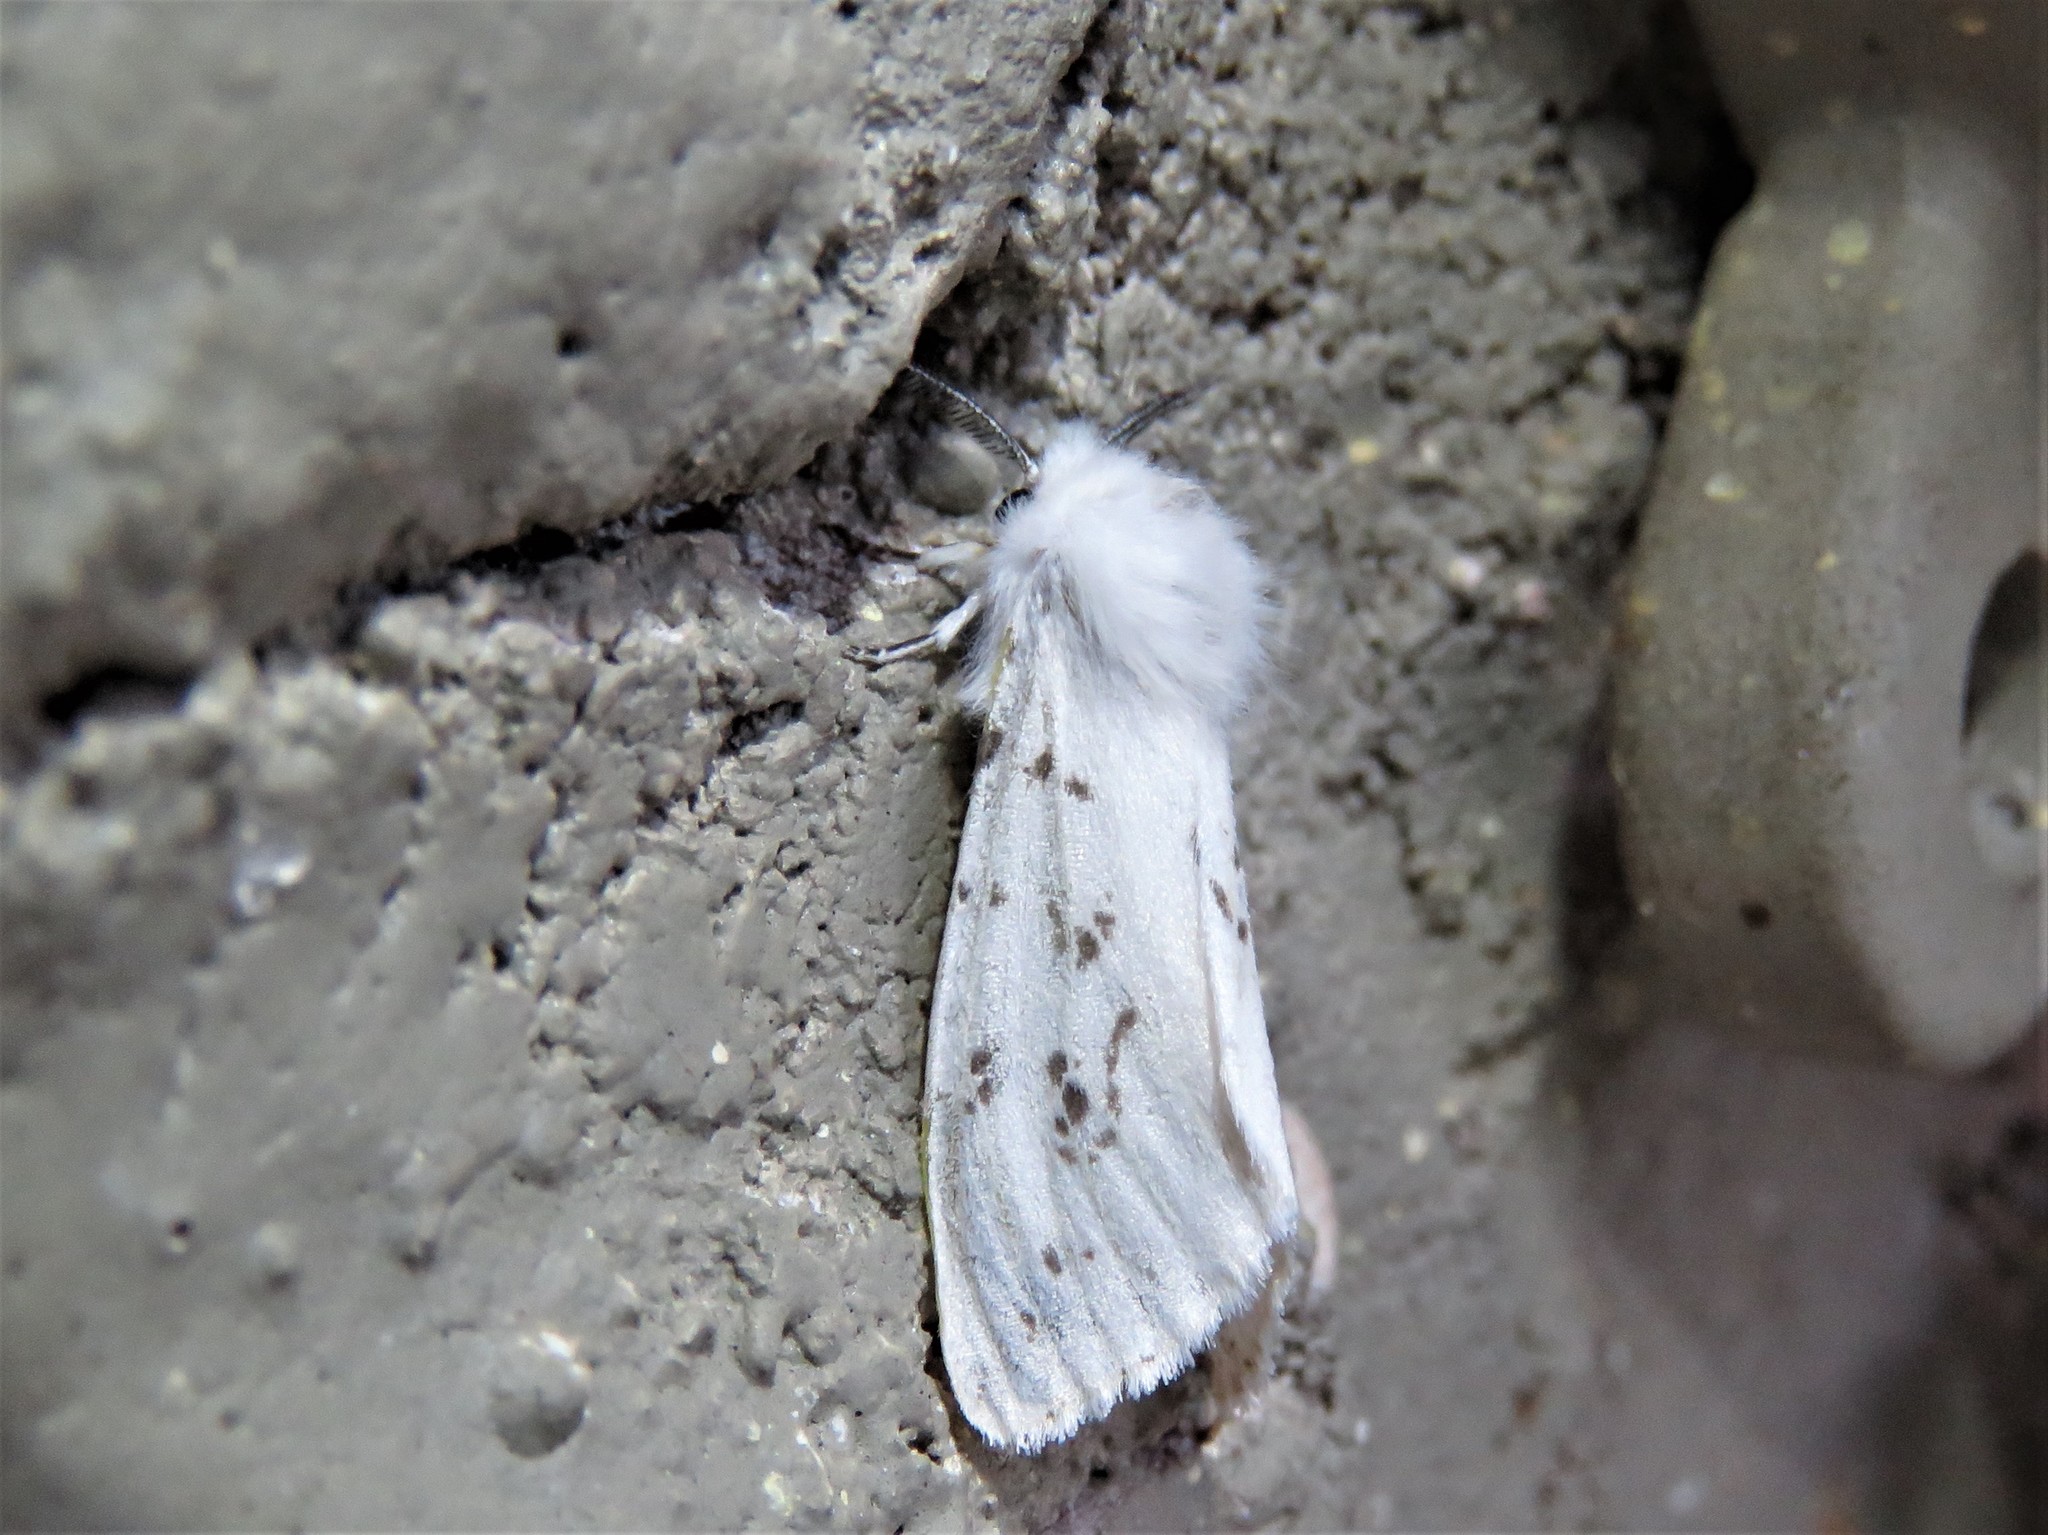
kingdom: Animalia
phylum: Arthropoda
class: Insecta
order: Lepidoptera
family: Erebidae
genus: Hyphantria
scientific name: Hyphantria cunea
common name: American white moth
